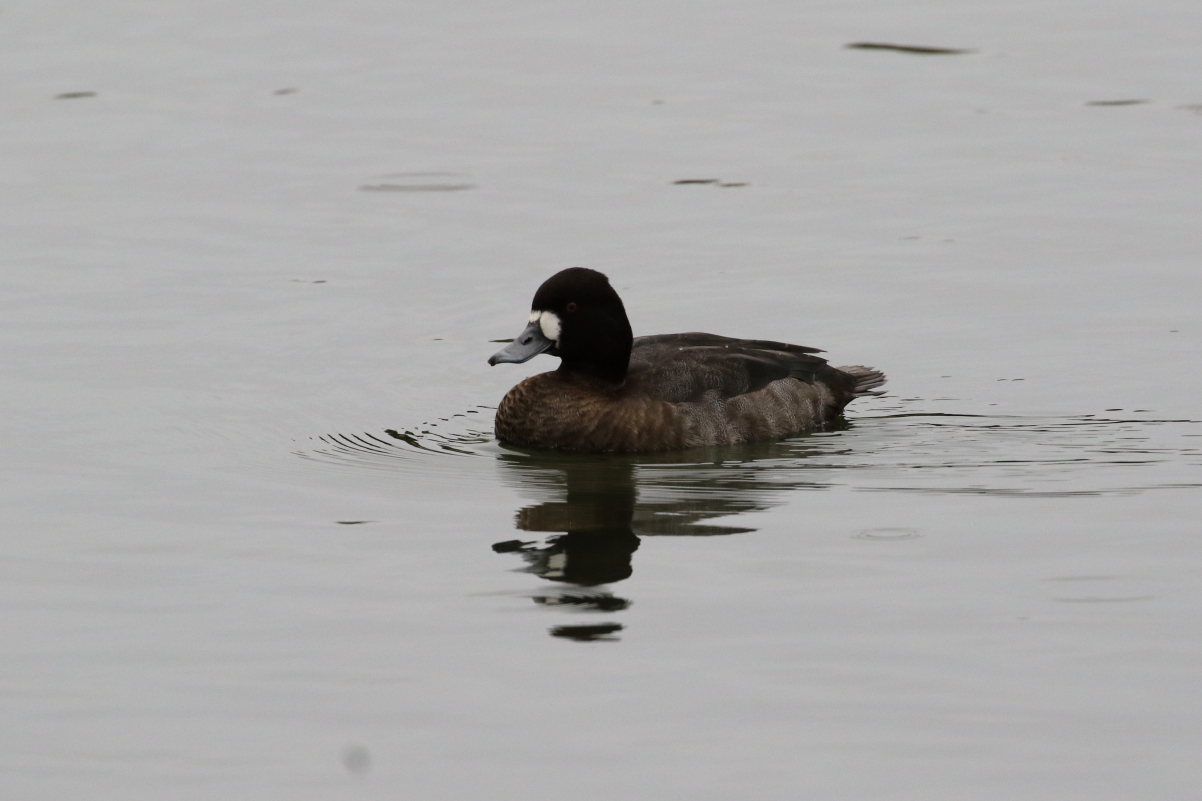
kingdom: Animalia
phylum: Chordata
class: Aves
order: Anseriformes
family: Anatidae
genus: Aythya
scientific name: Aythya affinis
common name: Lesser scaup
